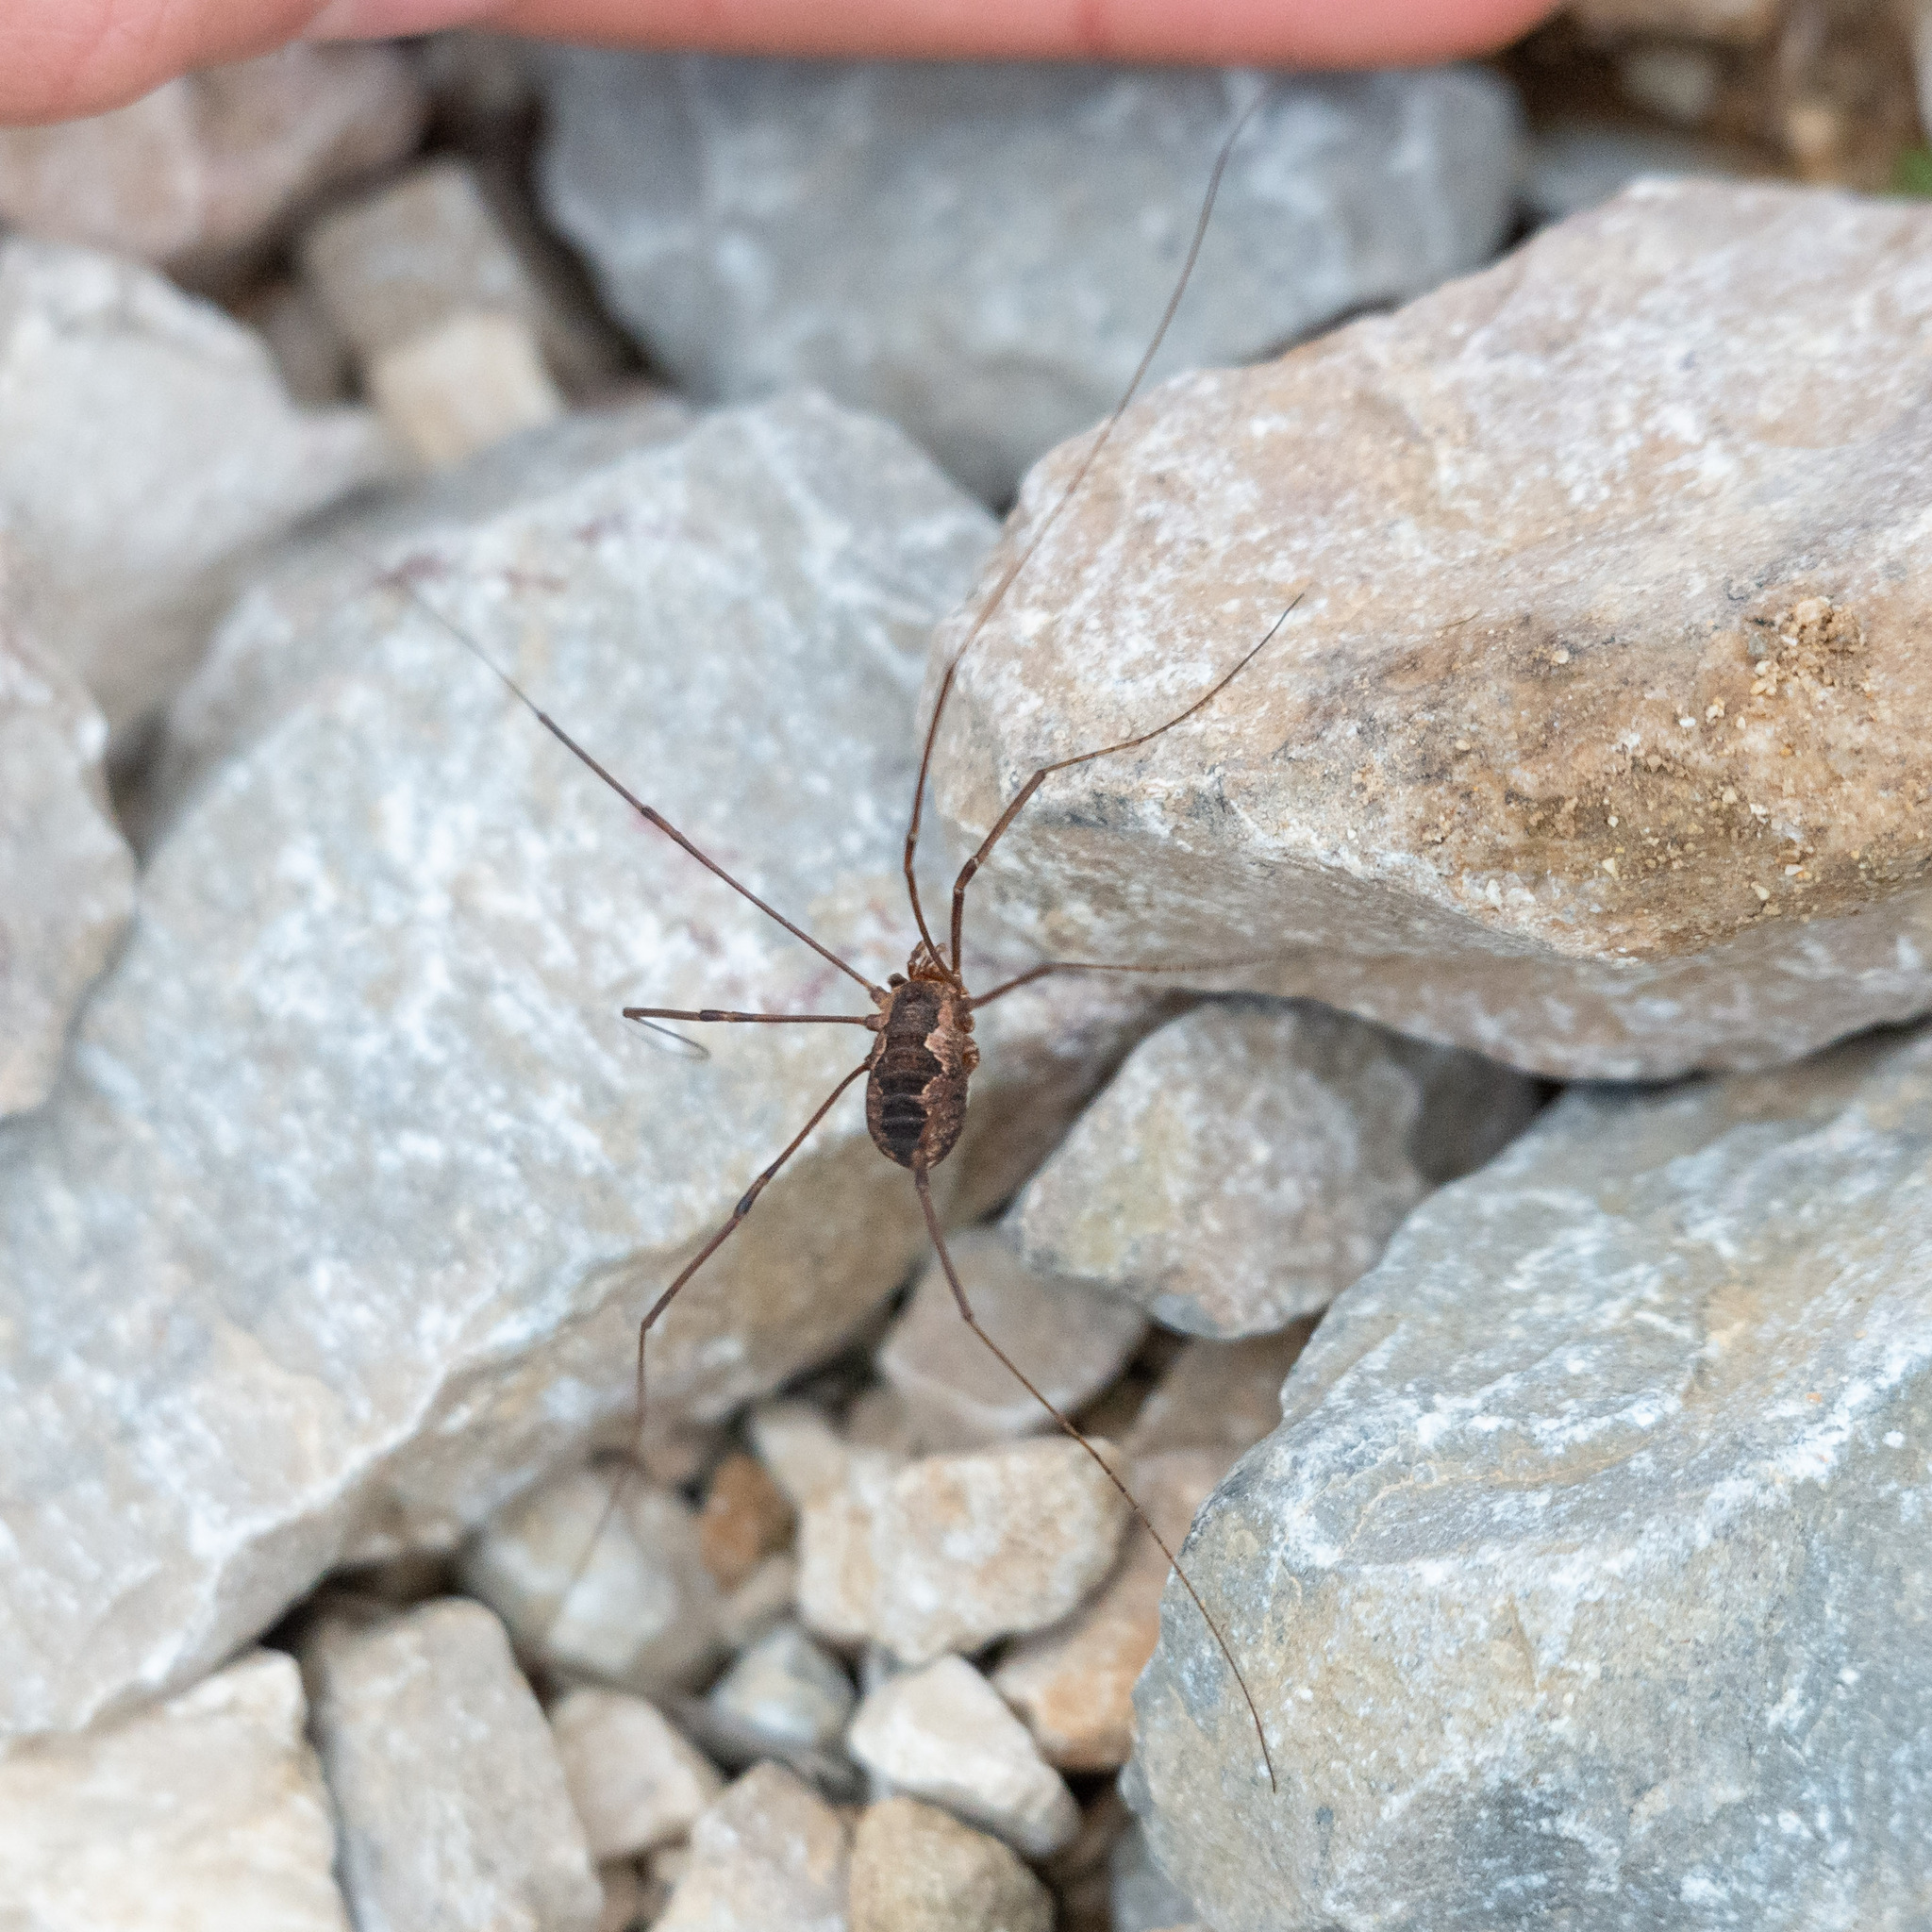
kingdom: Animalia
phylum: Arthropoda
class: Arachnida
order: Opiliones
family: Phalangiidae
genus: Phalangium
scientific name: Phalangium opilio
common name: Daddy longleg
